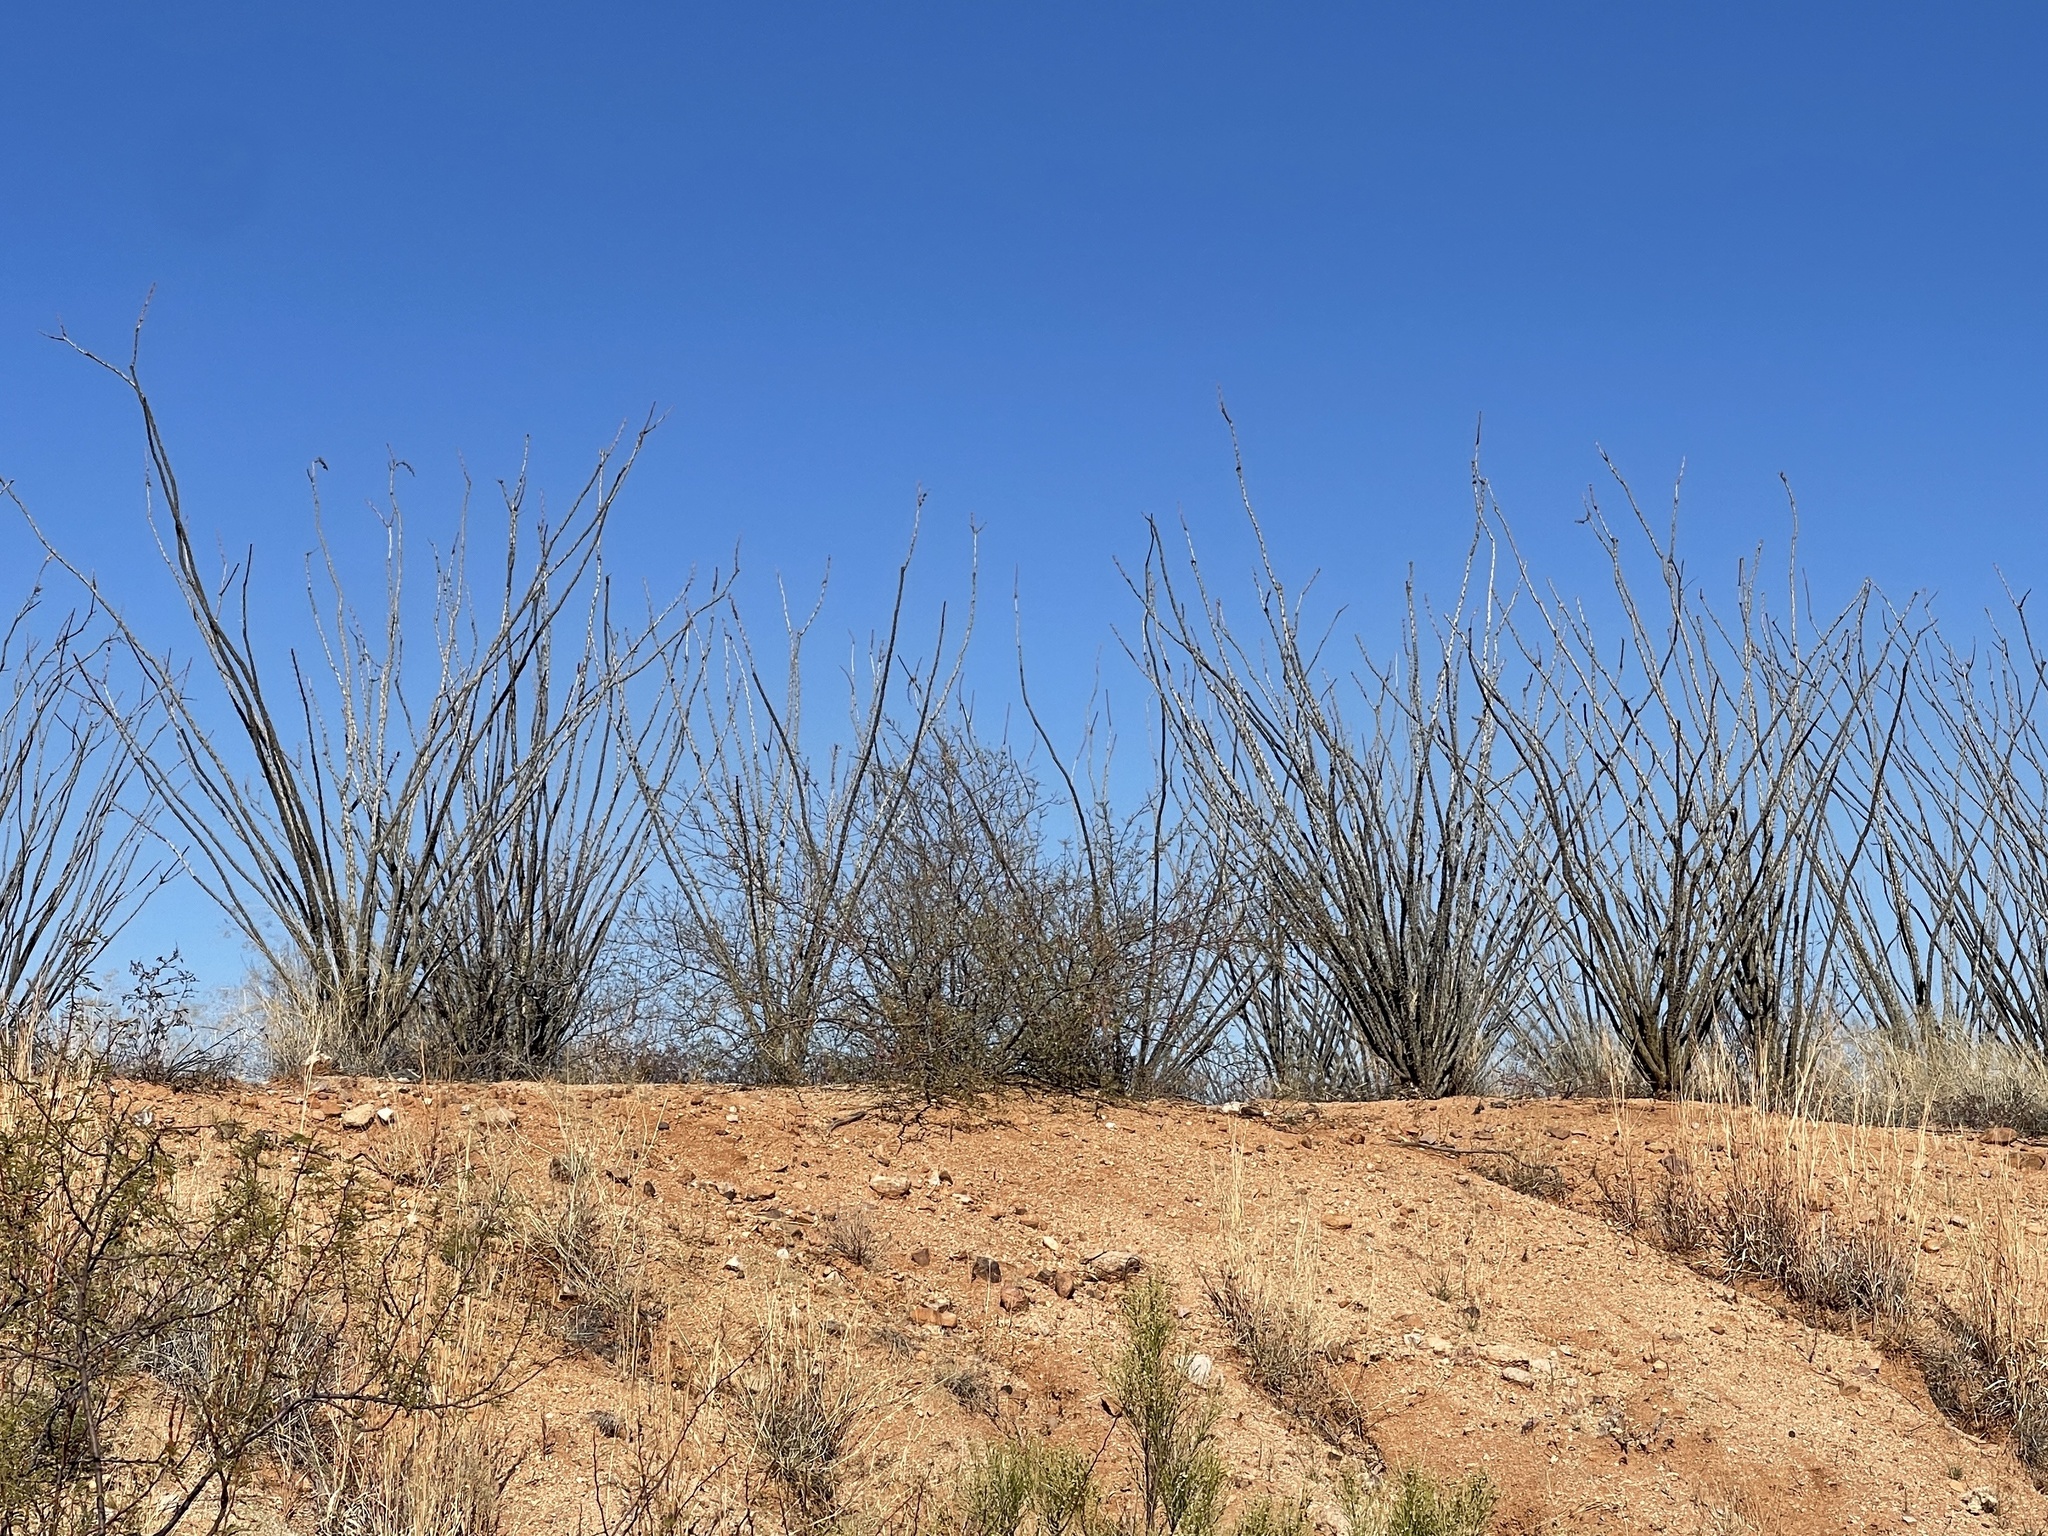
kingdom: Plantae
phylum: Tracheophyta
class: Magnoliopsida
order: Ericales
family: Fouquieriaceae
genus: Fouquieria
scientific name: Fouquieria splendens
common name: Vine-cactus
